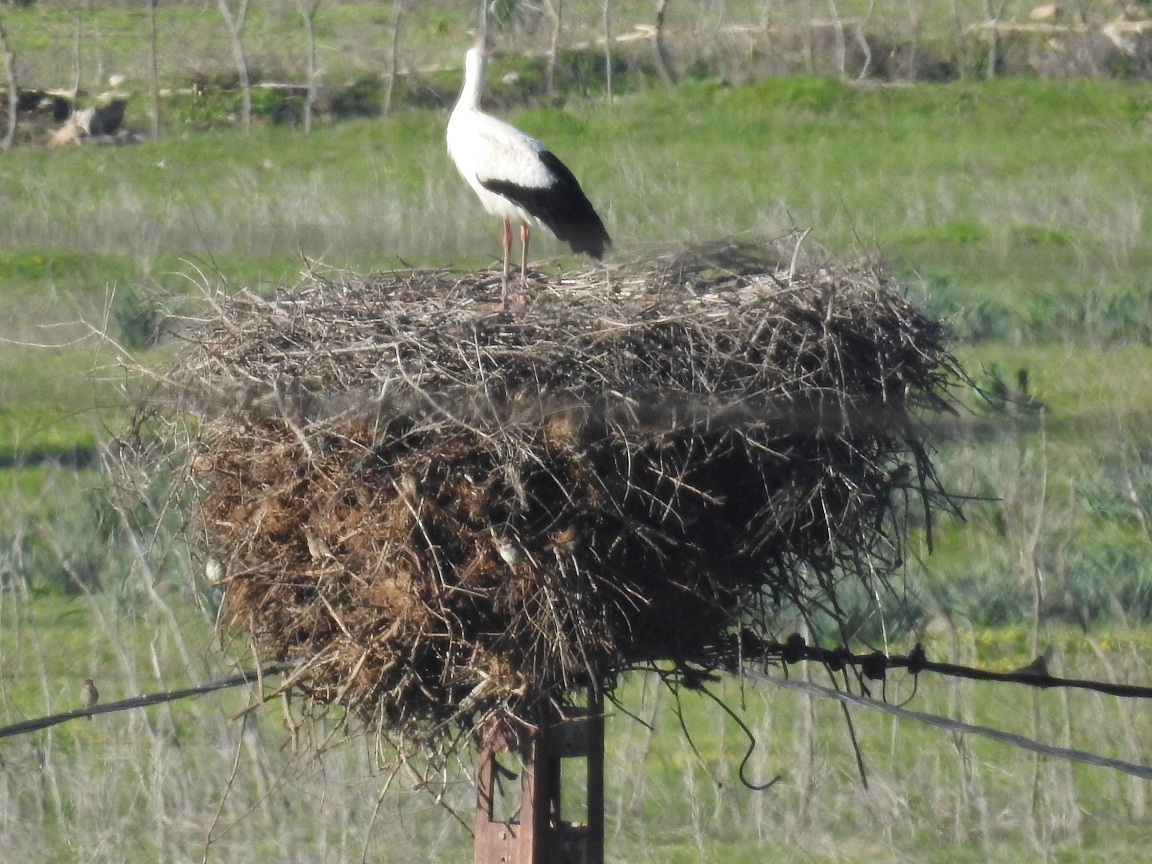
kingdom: Animalia
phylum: Chordata
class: Aves
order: Ciconiiformes
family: Ciconiidae
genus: Ciconia
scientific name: Ciconia ciconia
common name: White stork
